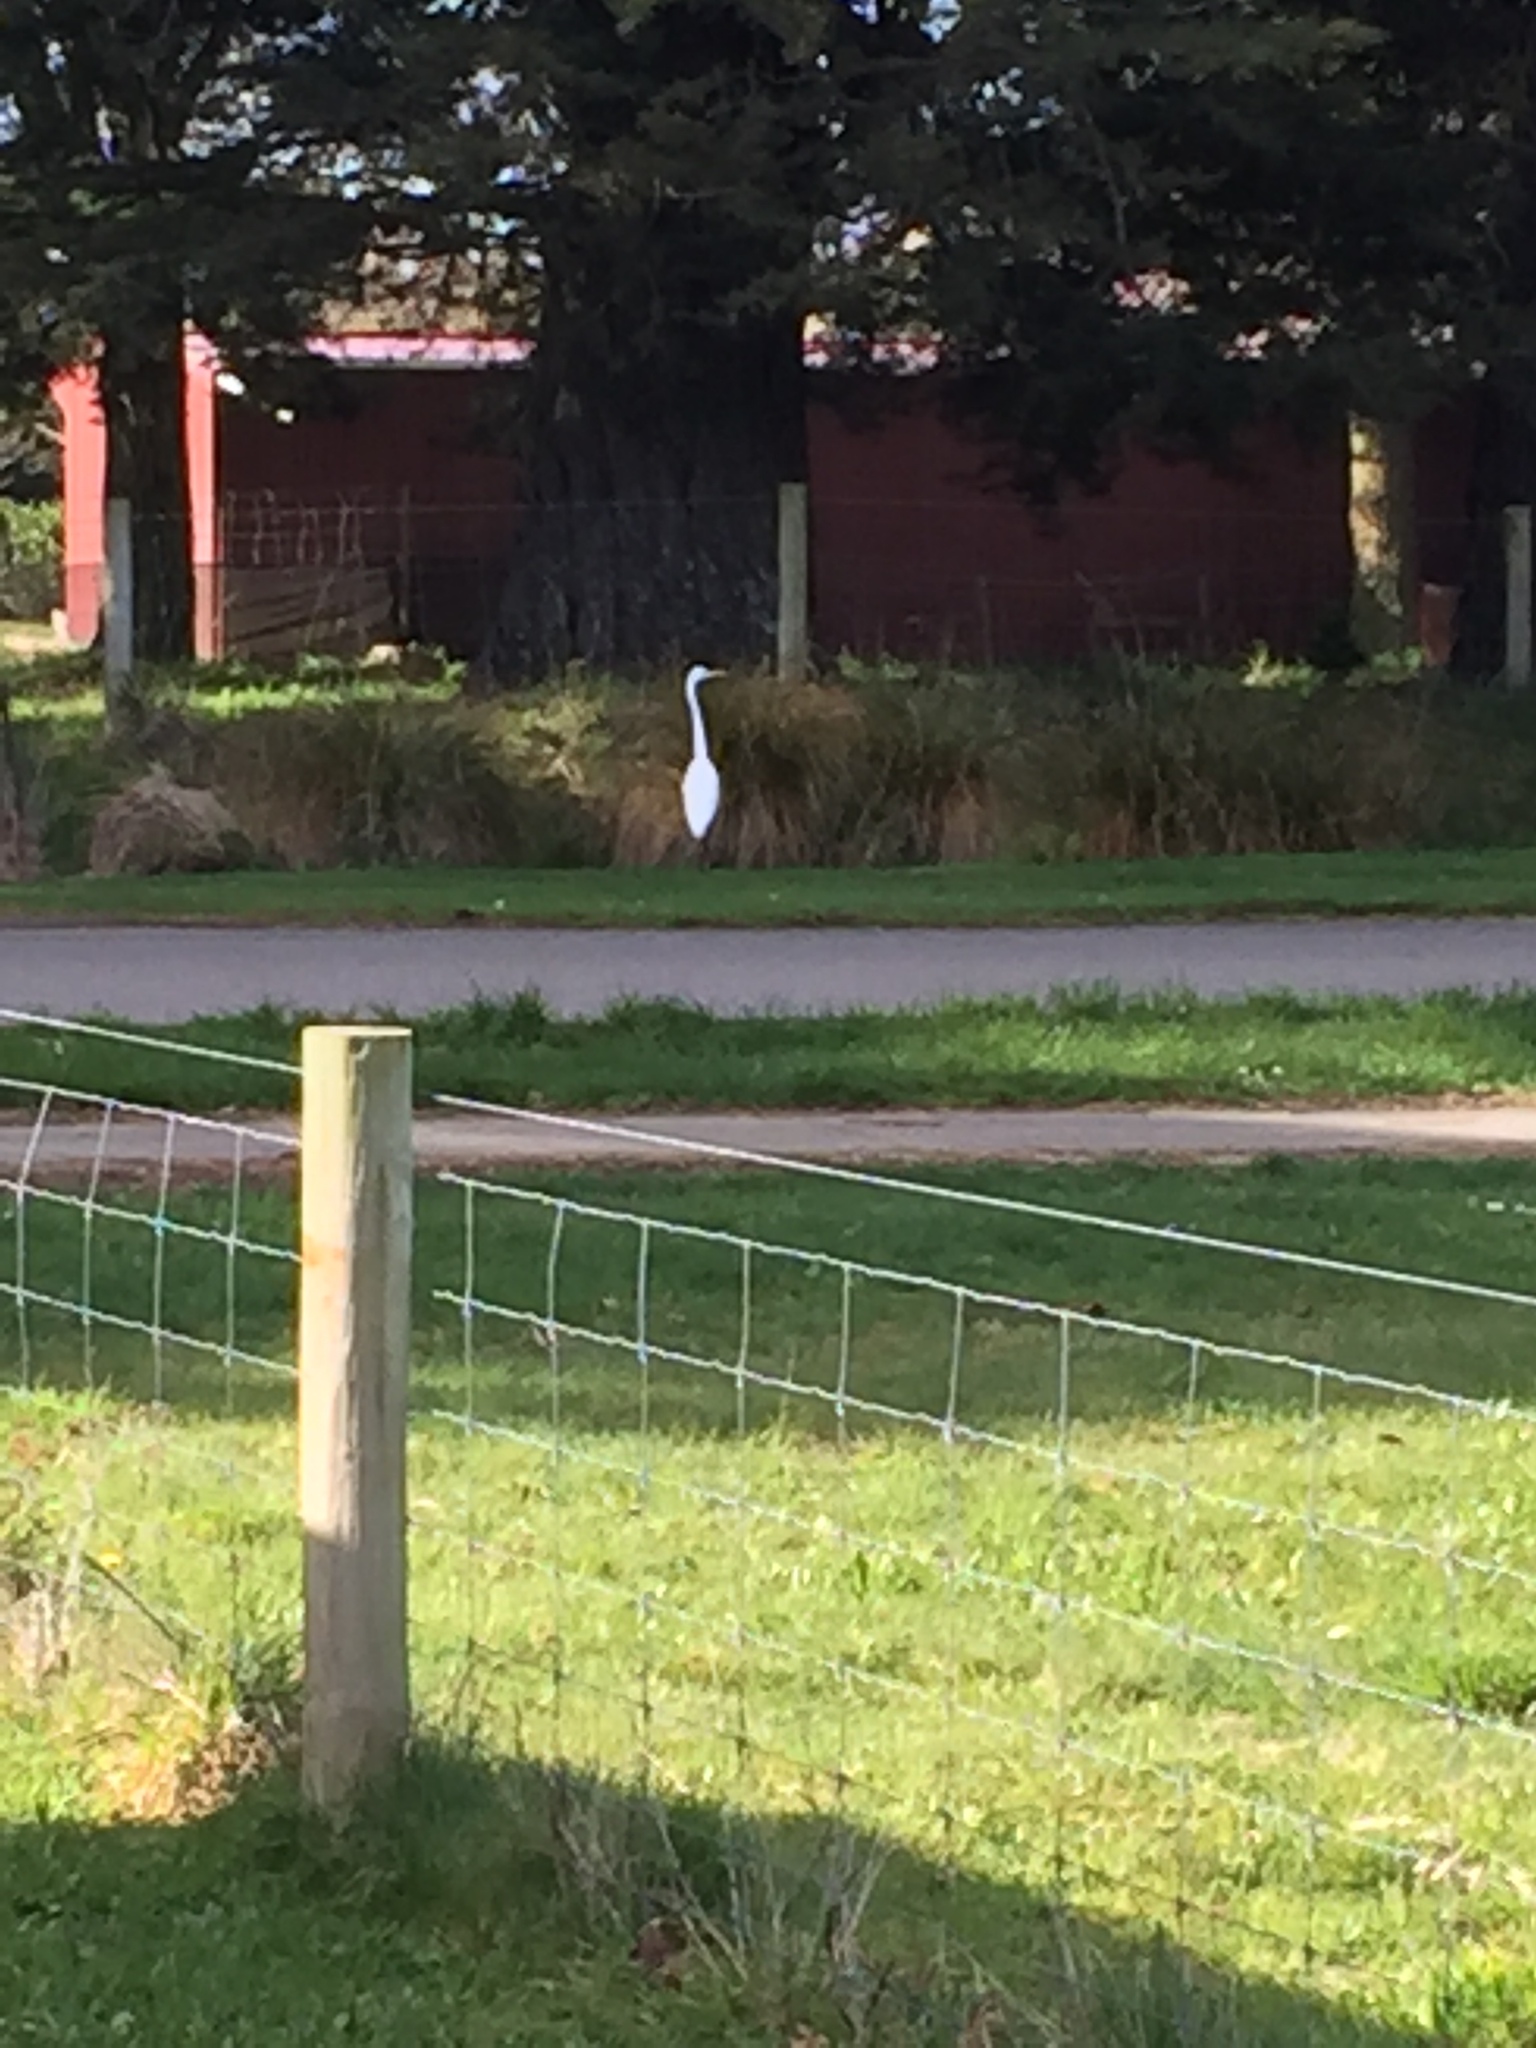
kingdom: Animalia
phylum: Chordata
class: Aves
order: Pelecaniformes
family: Ardeidae
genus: Ardea
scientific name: Ardea modesta
